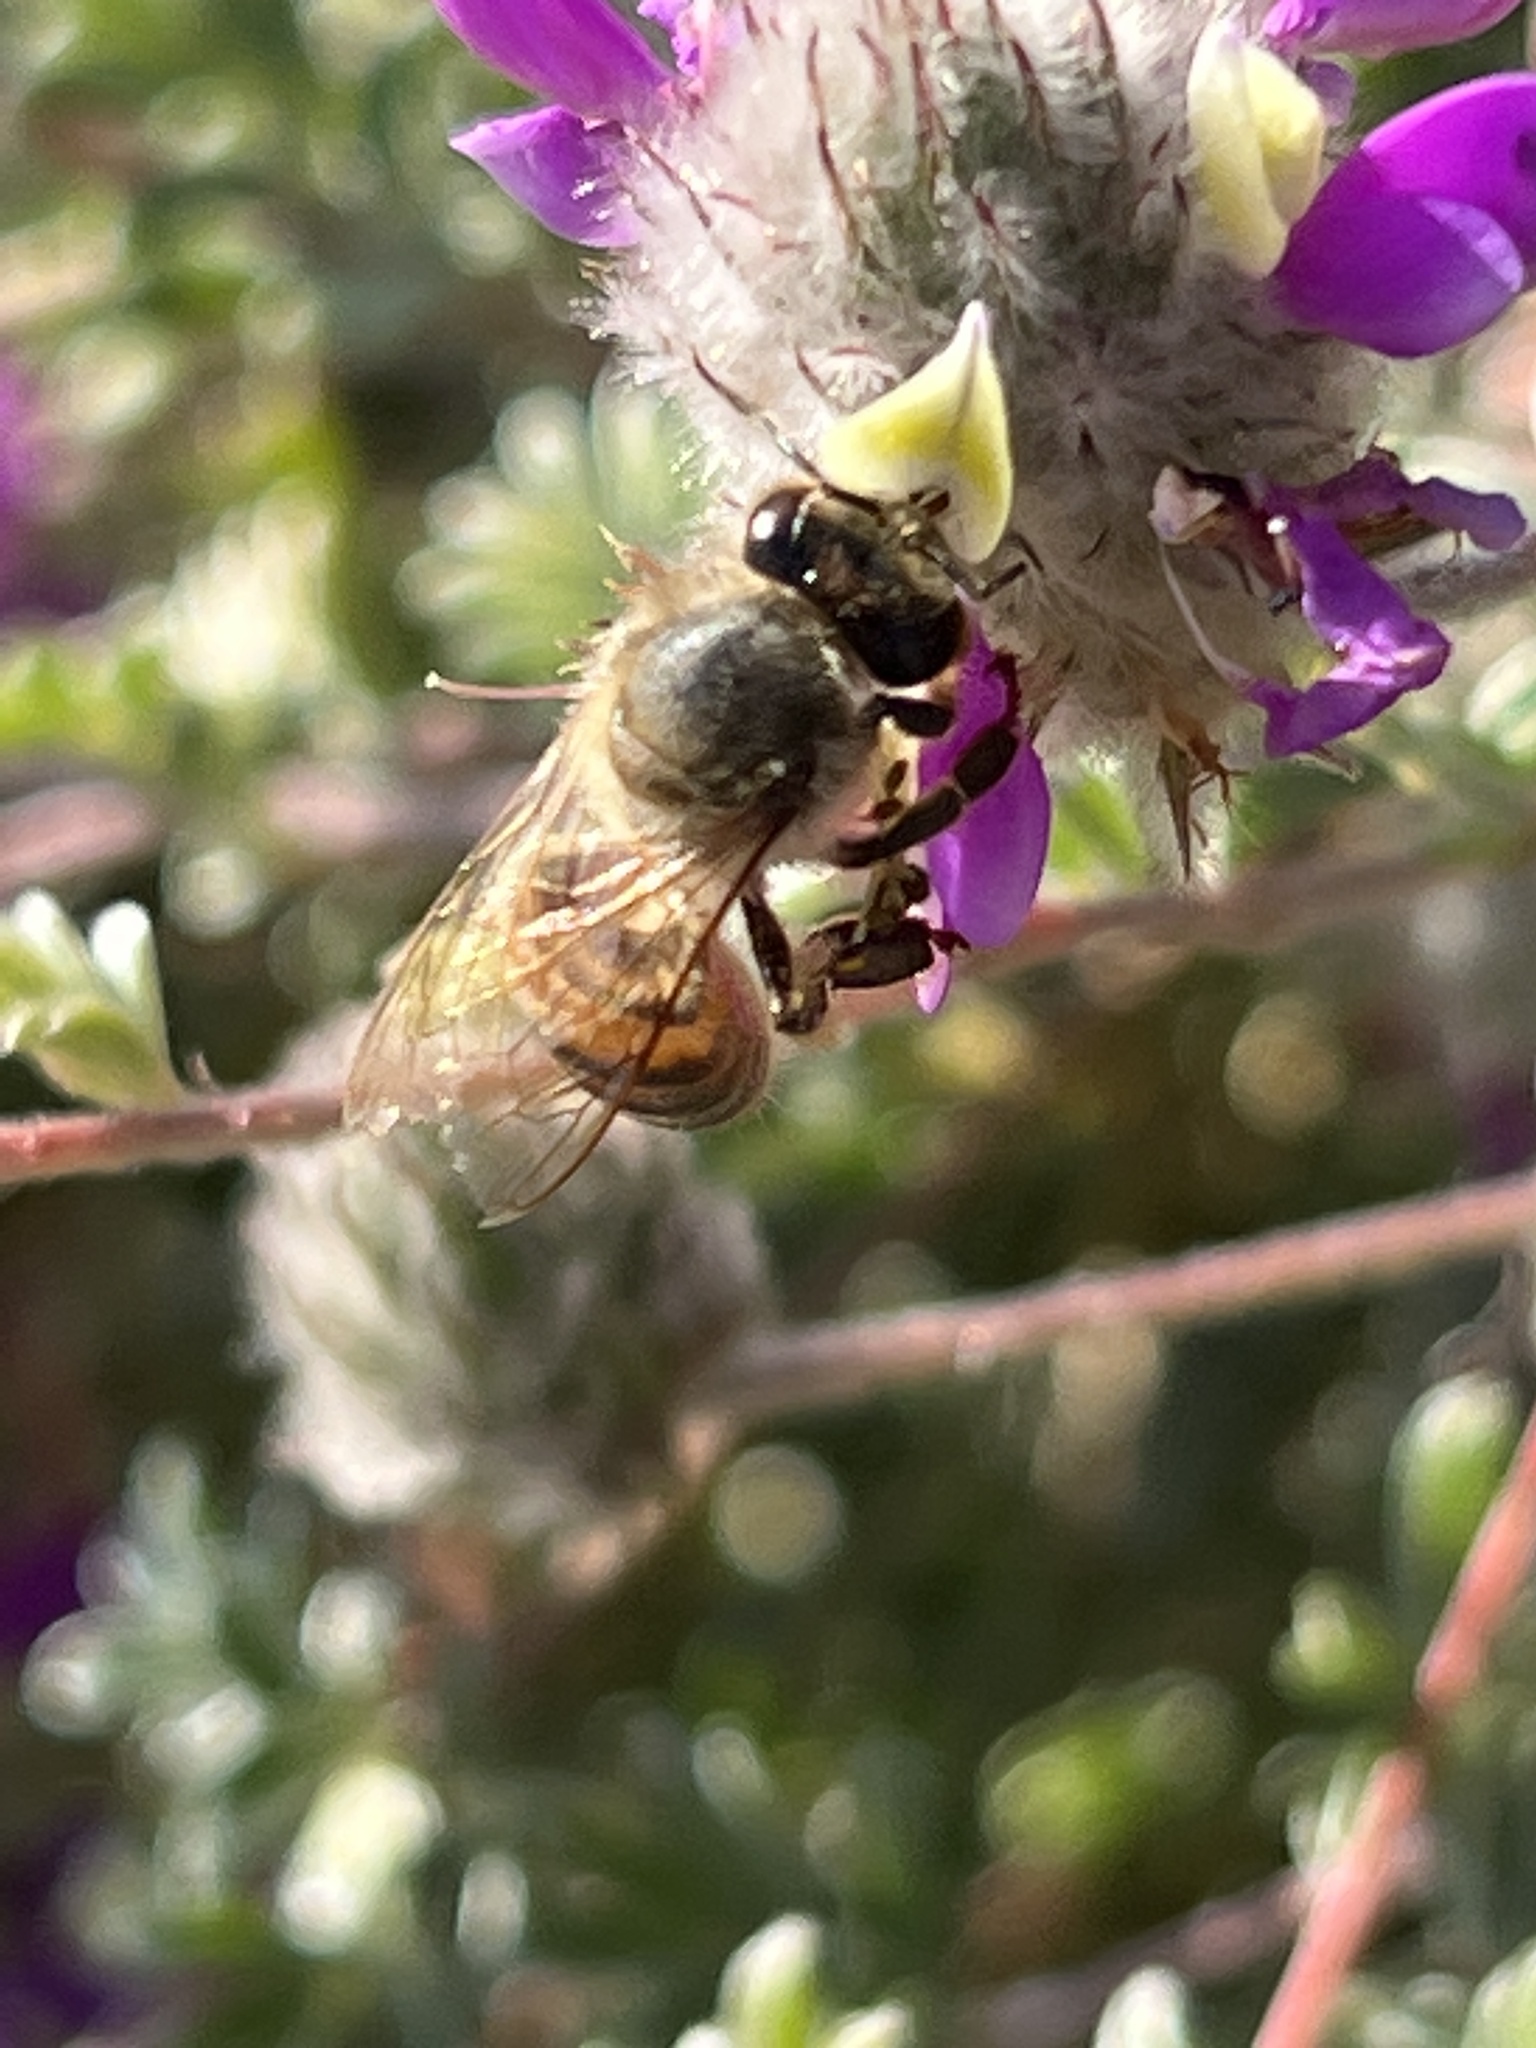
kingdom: Animalia
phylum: Arthropoda
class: Insecta
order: Hymenoptera
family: Apidae
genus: Apis
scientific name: Apis mellifera
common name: Honey bee
